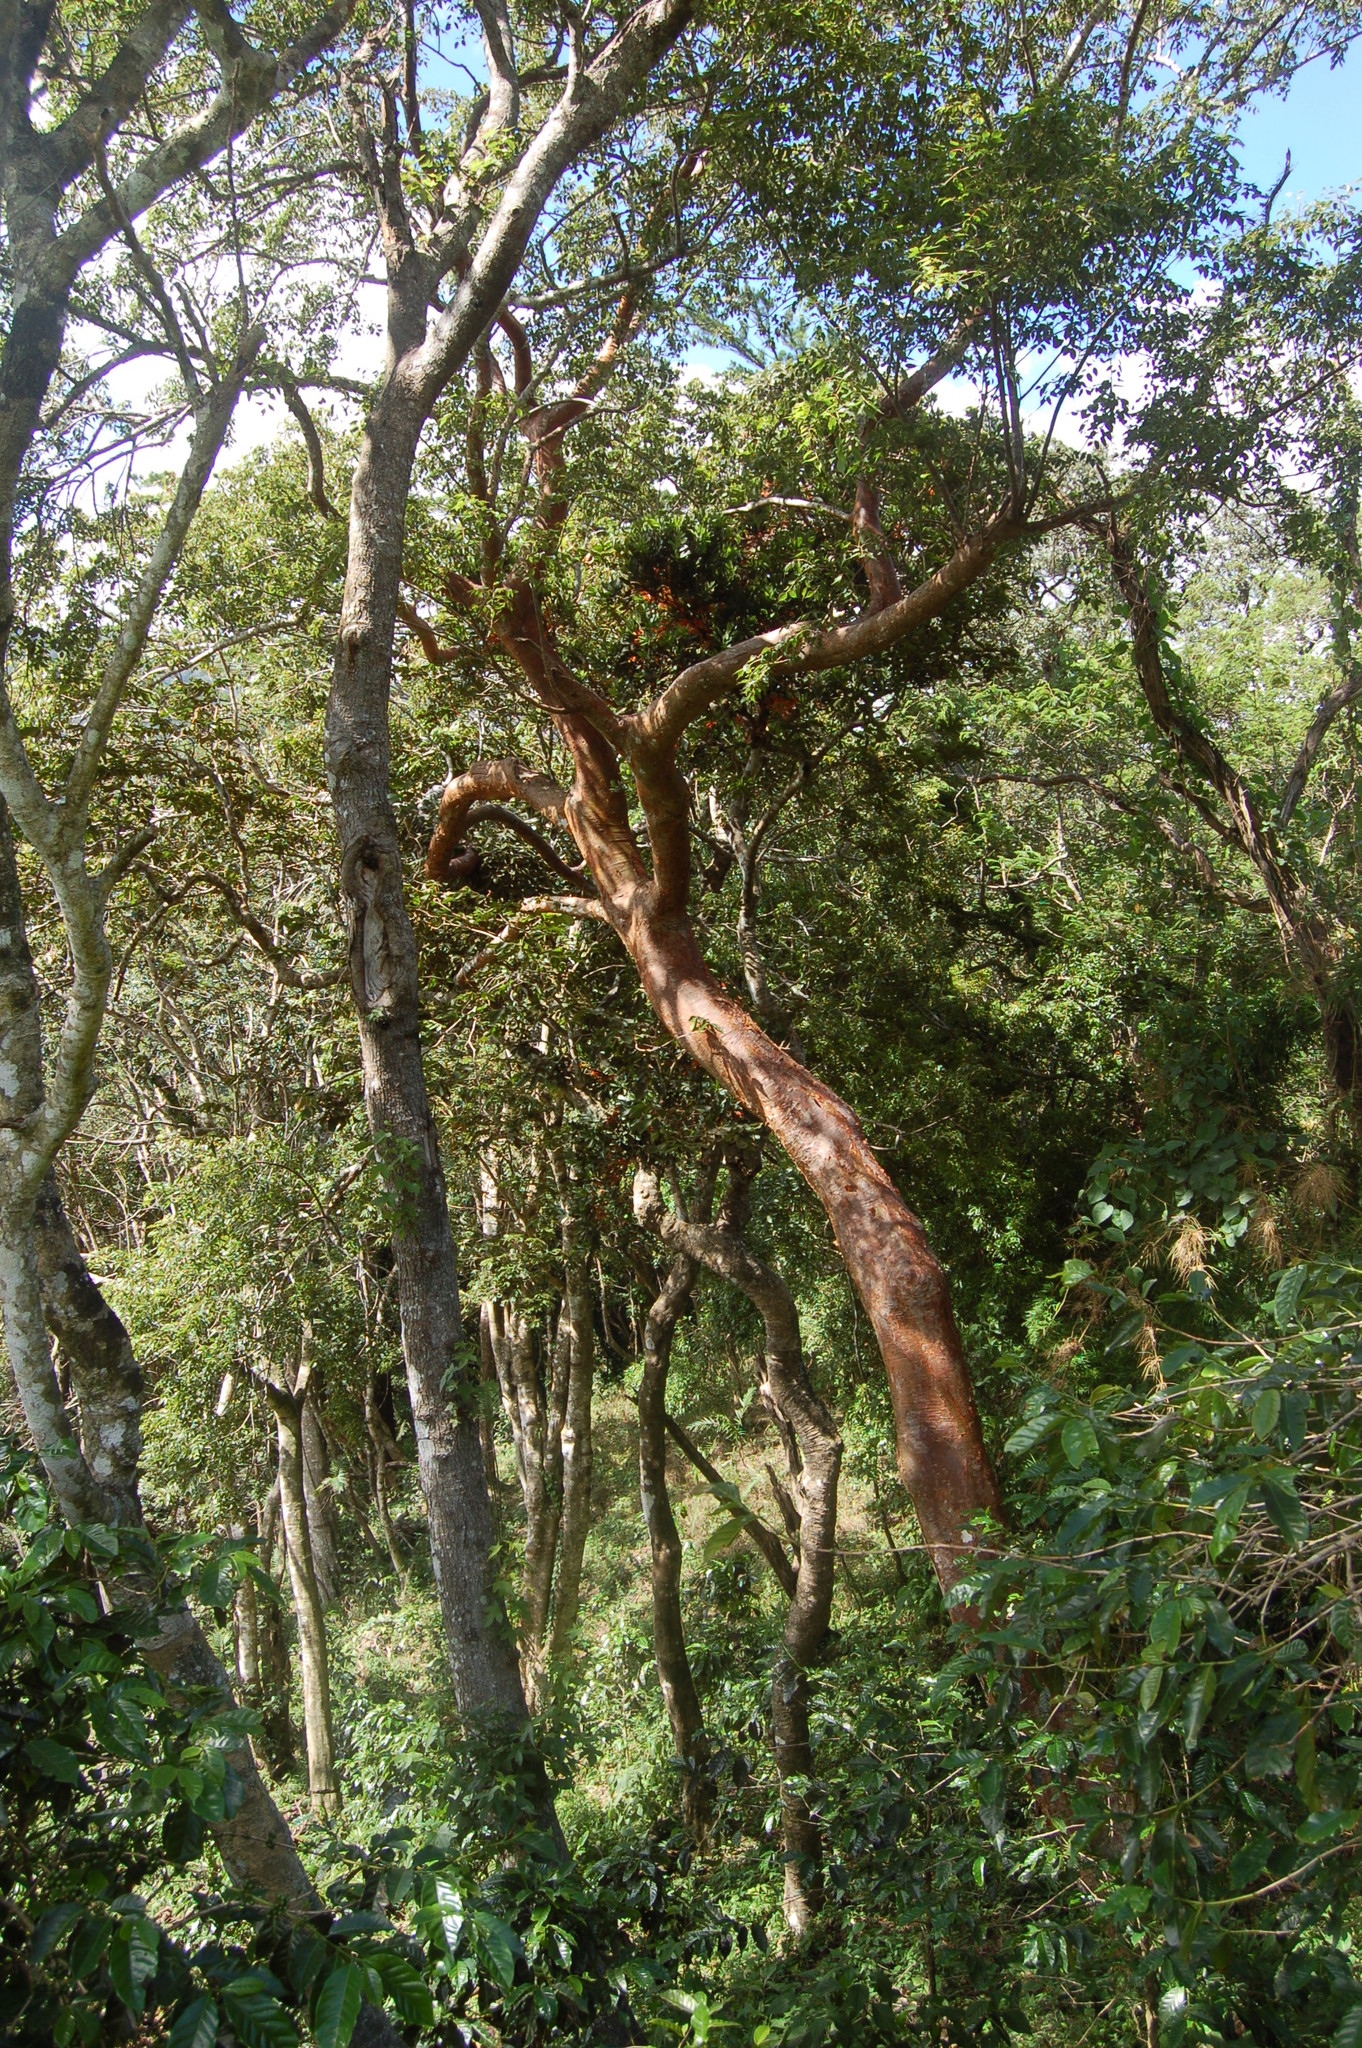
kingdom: Plantae
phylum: Tracheophyta
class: Magnoliopsida
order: Sapindales
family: Burseraceae
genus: Bursera
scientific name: Bursera simaruba
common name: Turpentine tree
